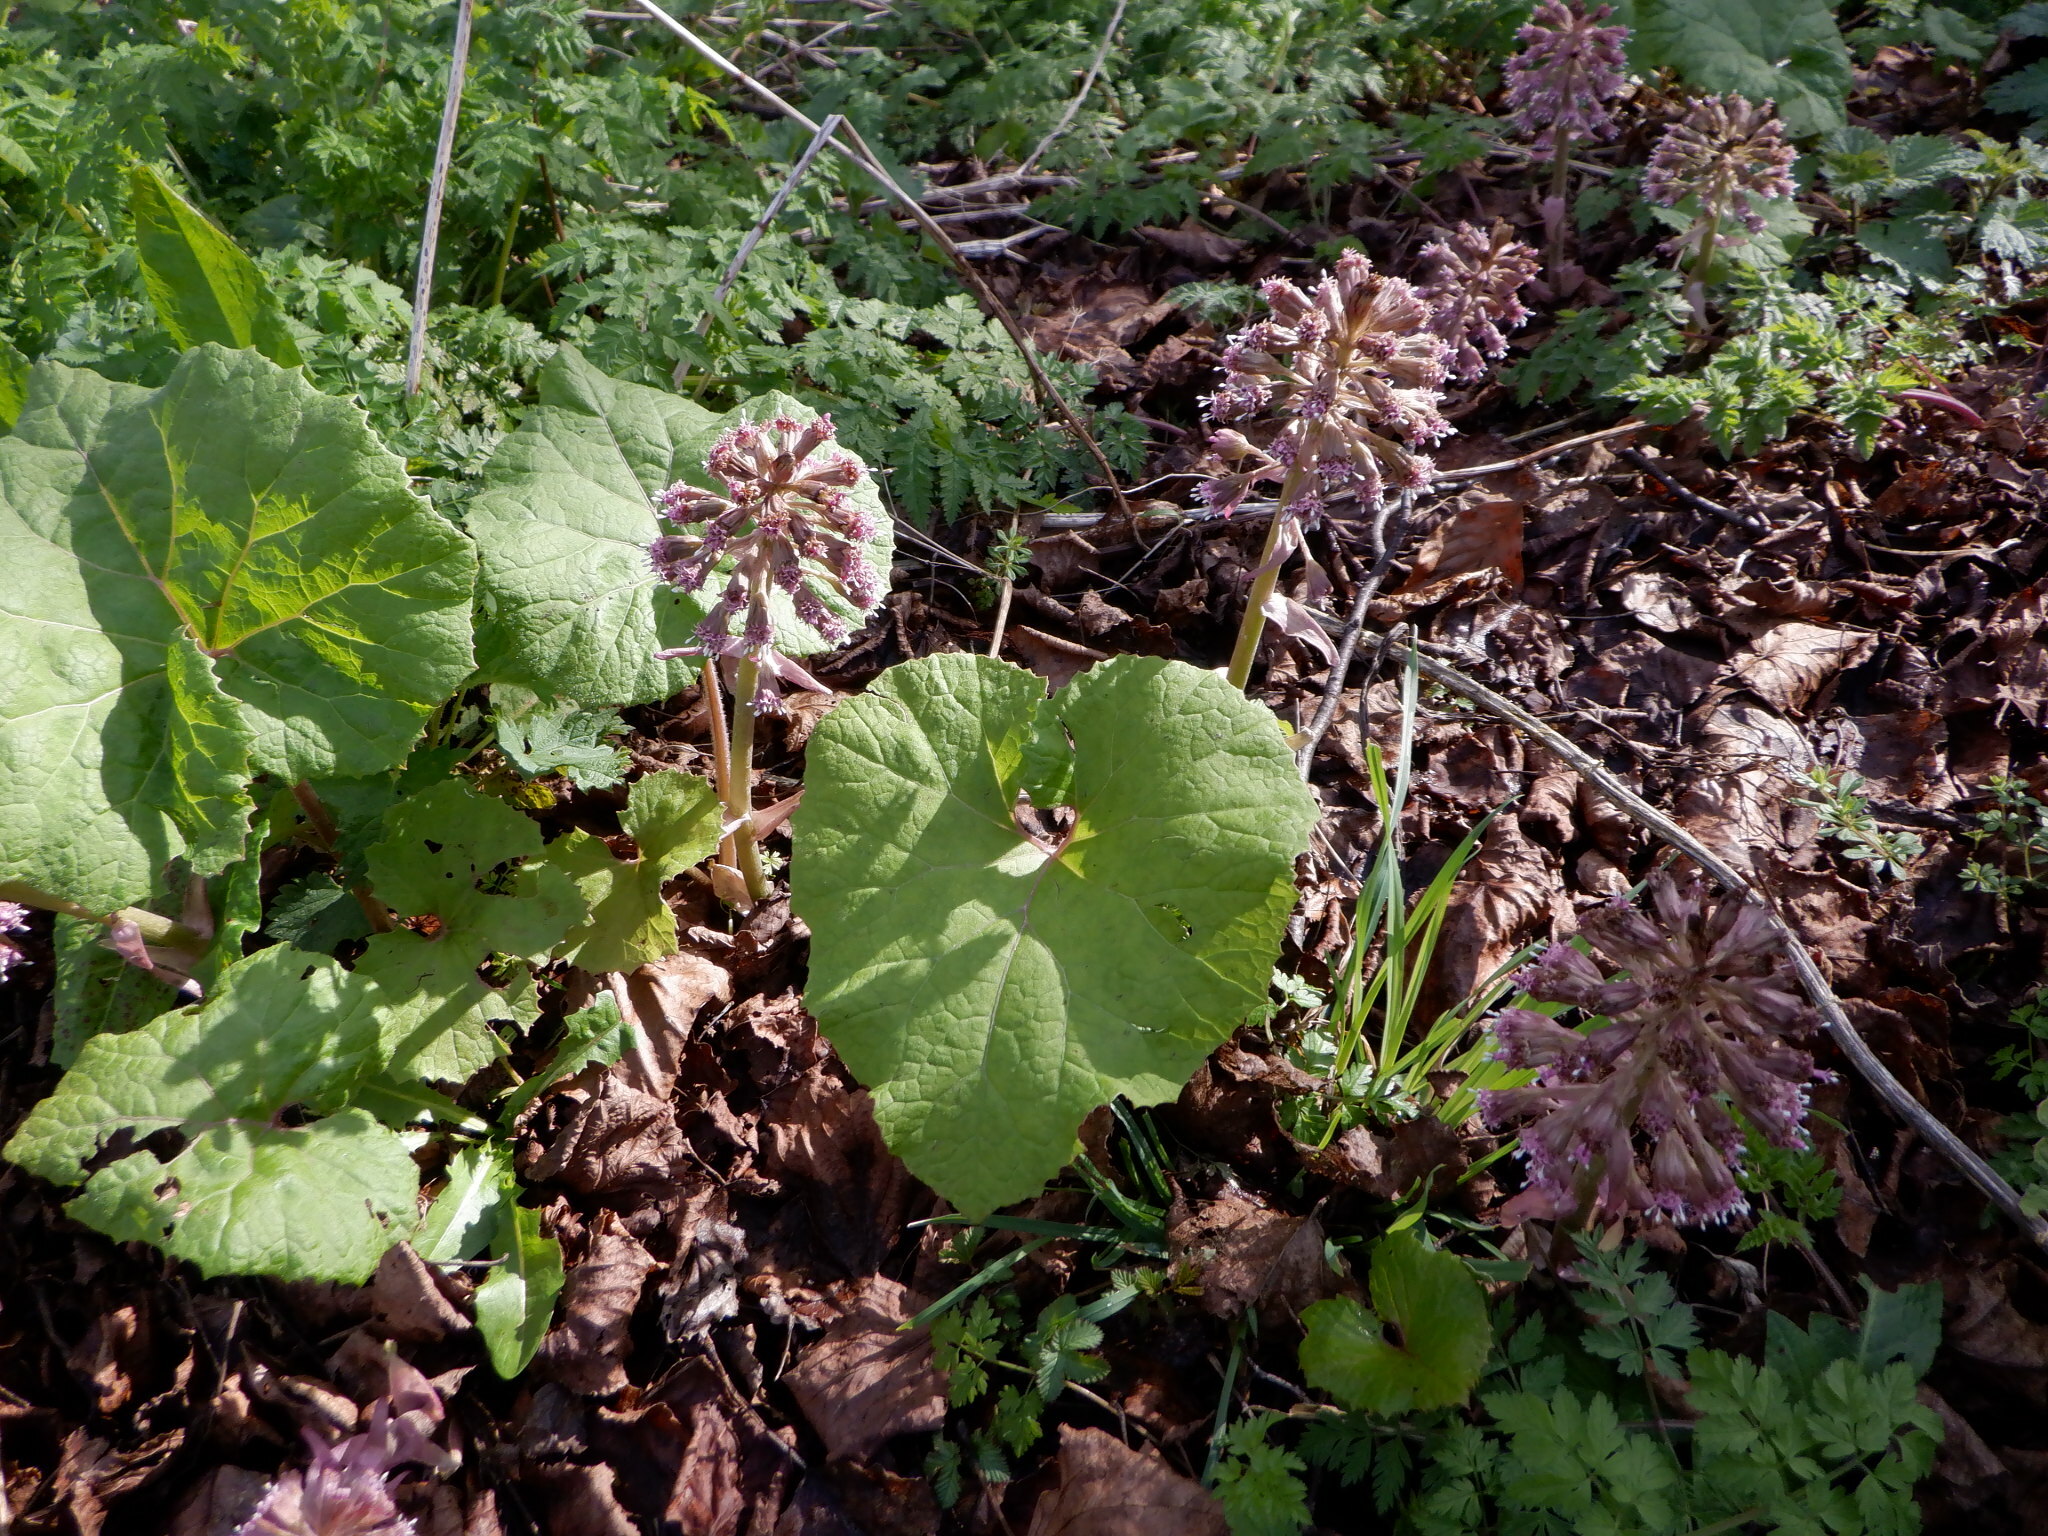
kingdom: Plantae
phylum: Tracheophyta
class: Magnoliopsida
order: Asterales
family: Asteraceae
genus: Petasites
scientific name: Petasites hybridus
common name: Butterbur
